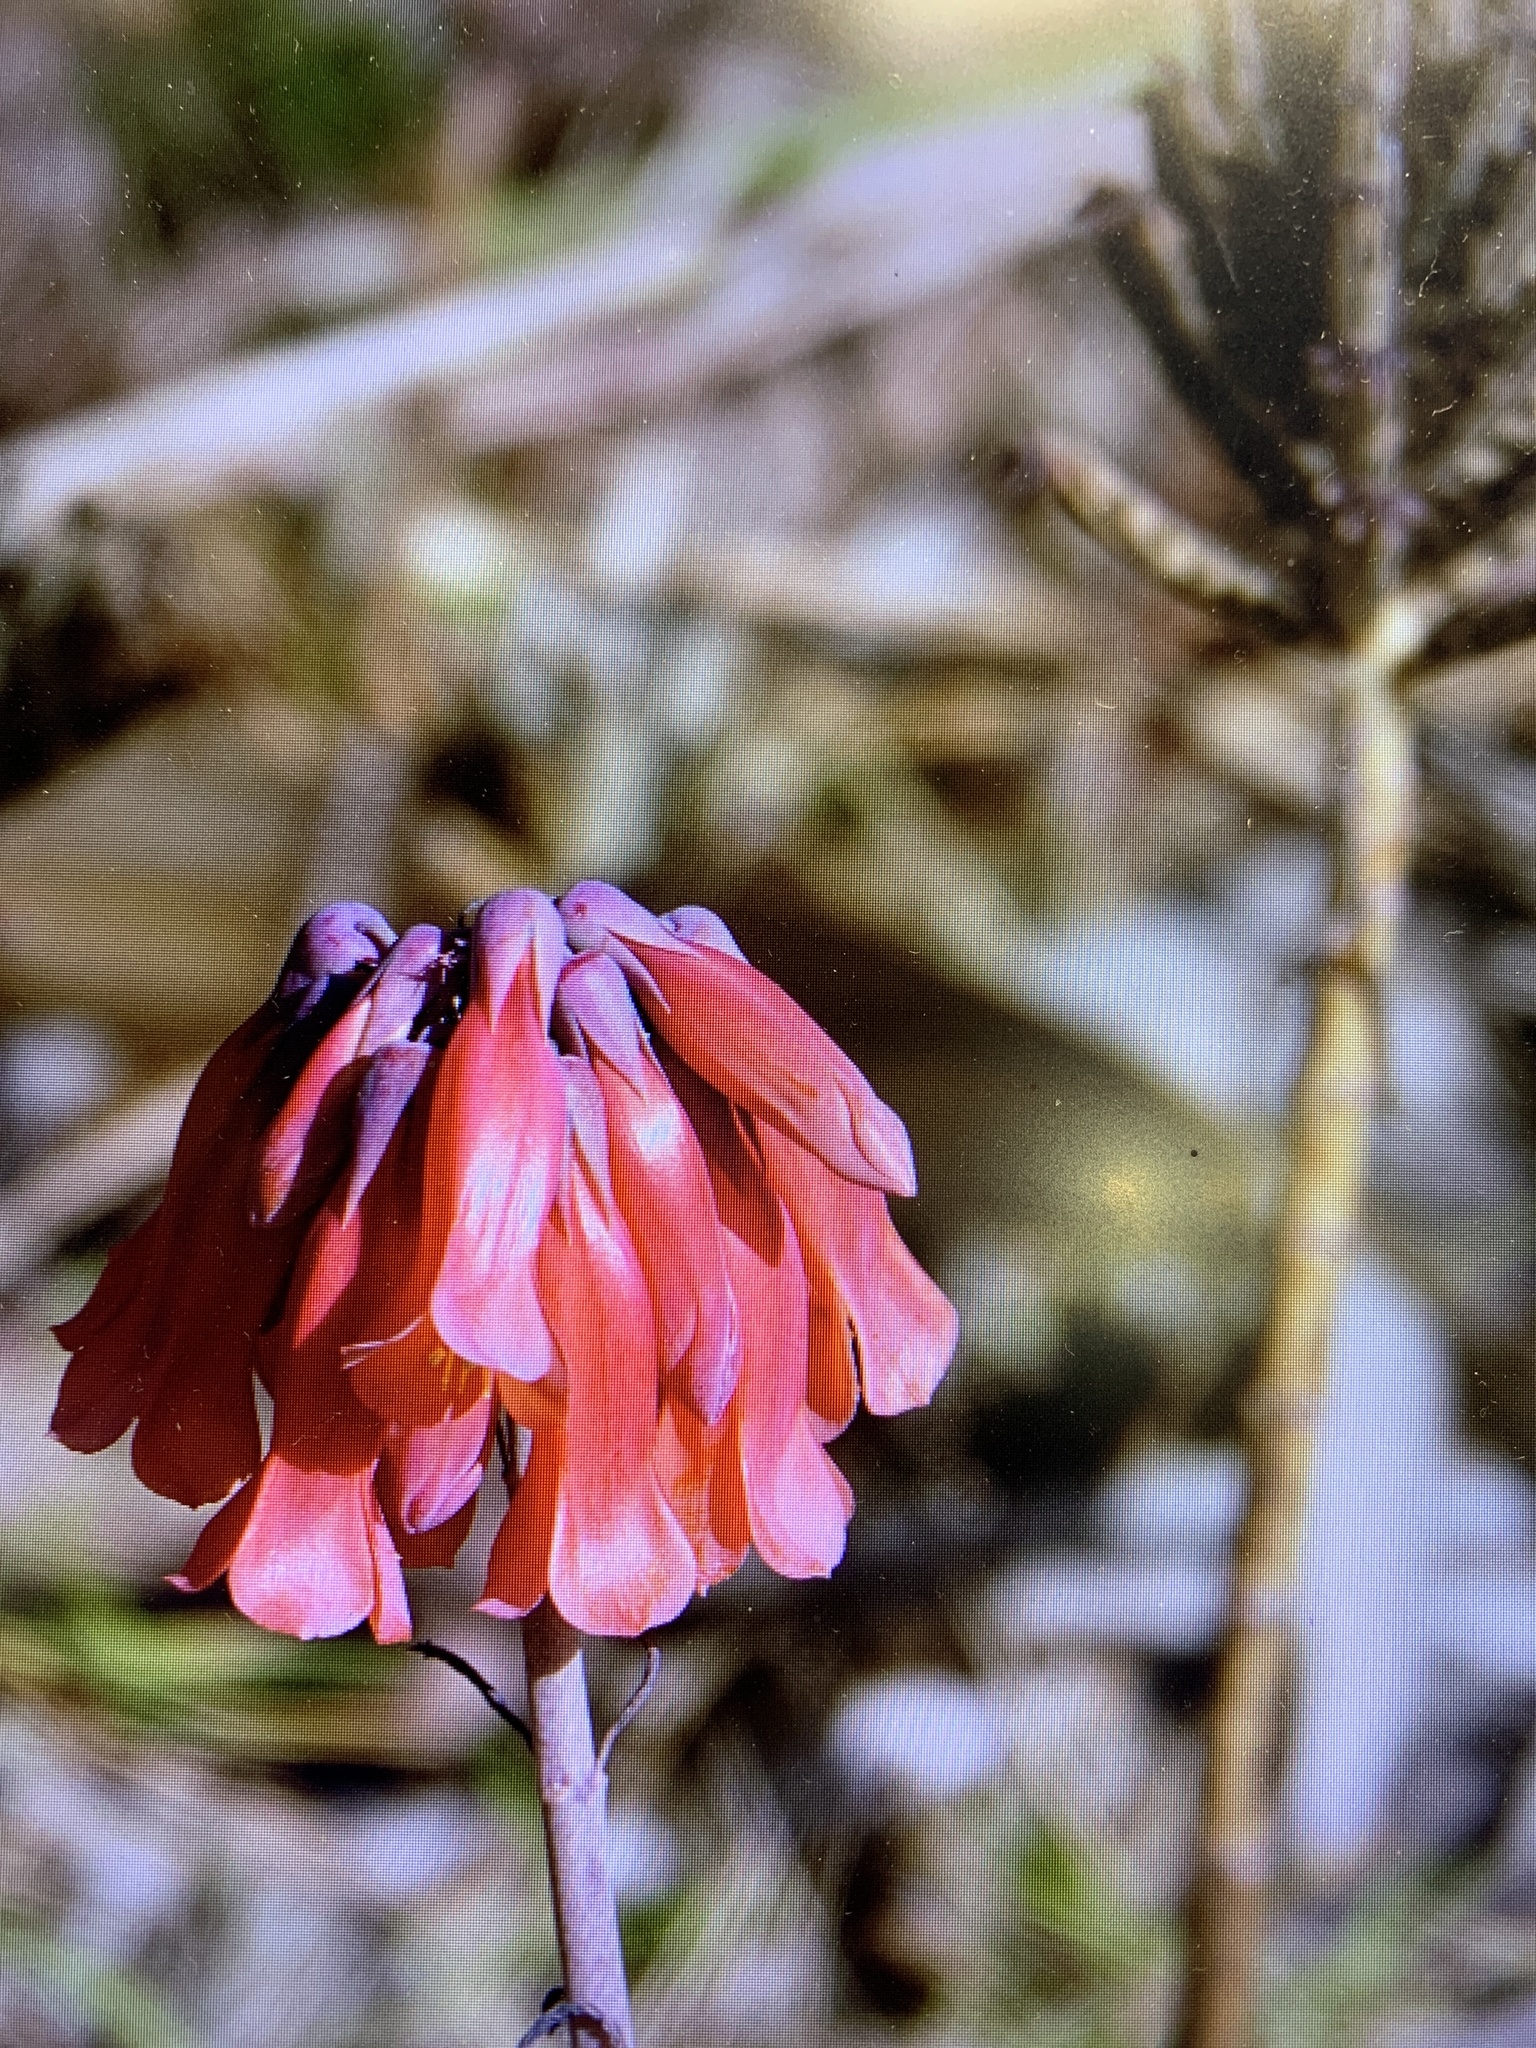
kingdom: Plantae
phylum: Tracheophyta
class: Magnoliopsida
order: Saxifragales
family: Crassulaceae
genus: Kalanchoe
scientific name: Kalanchoe delagoensis
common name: Chandelier plant
